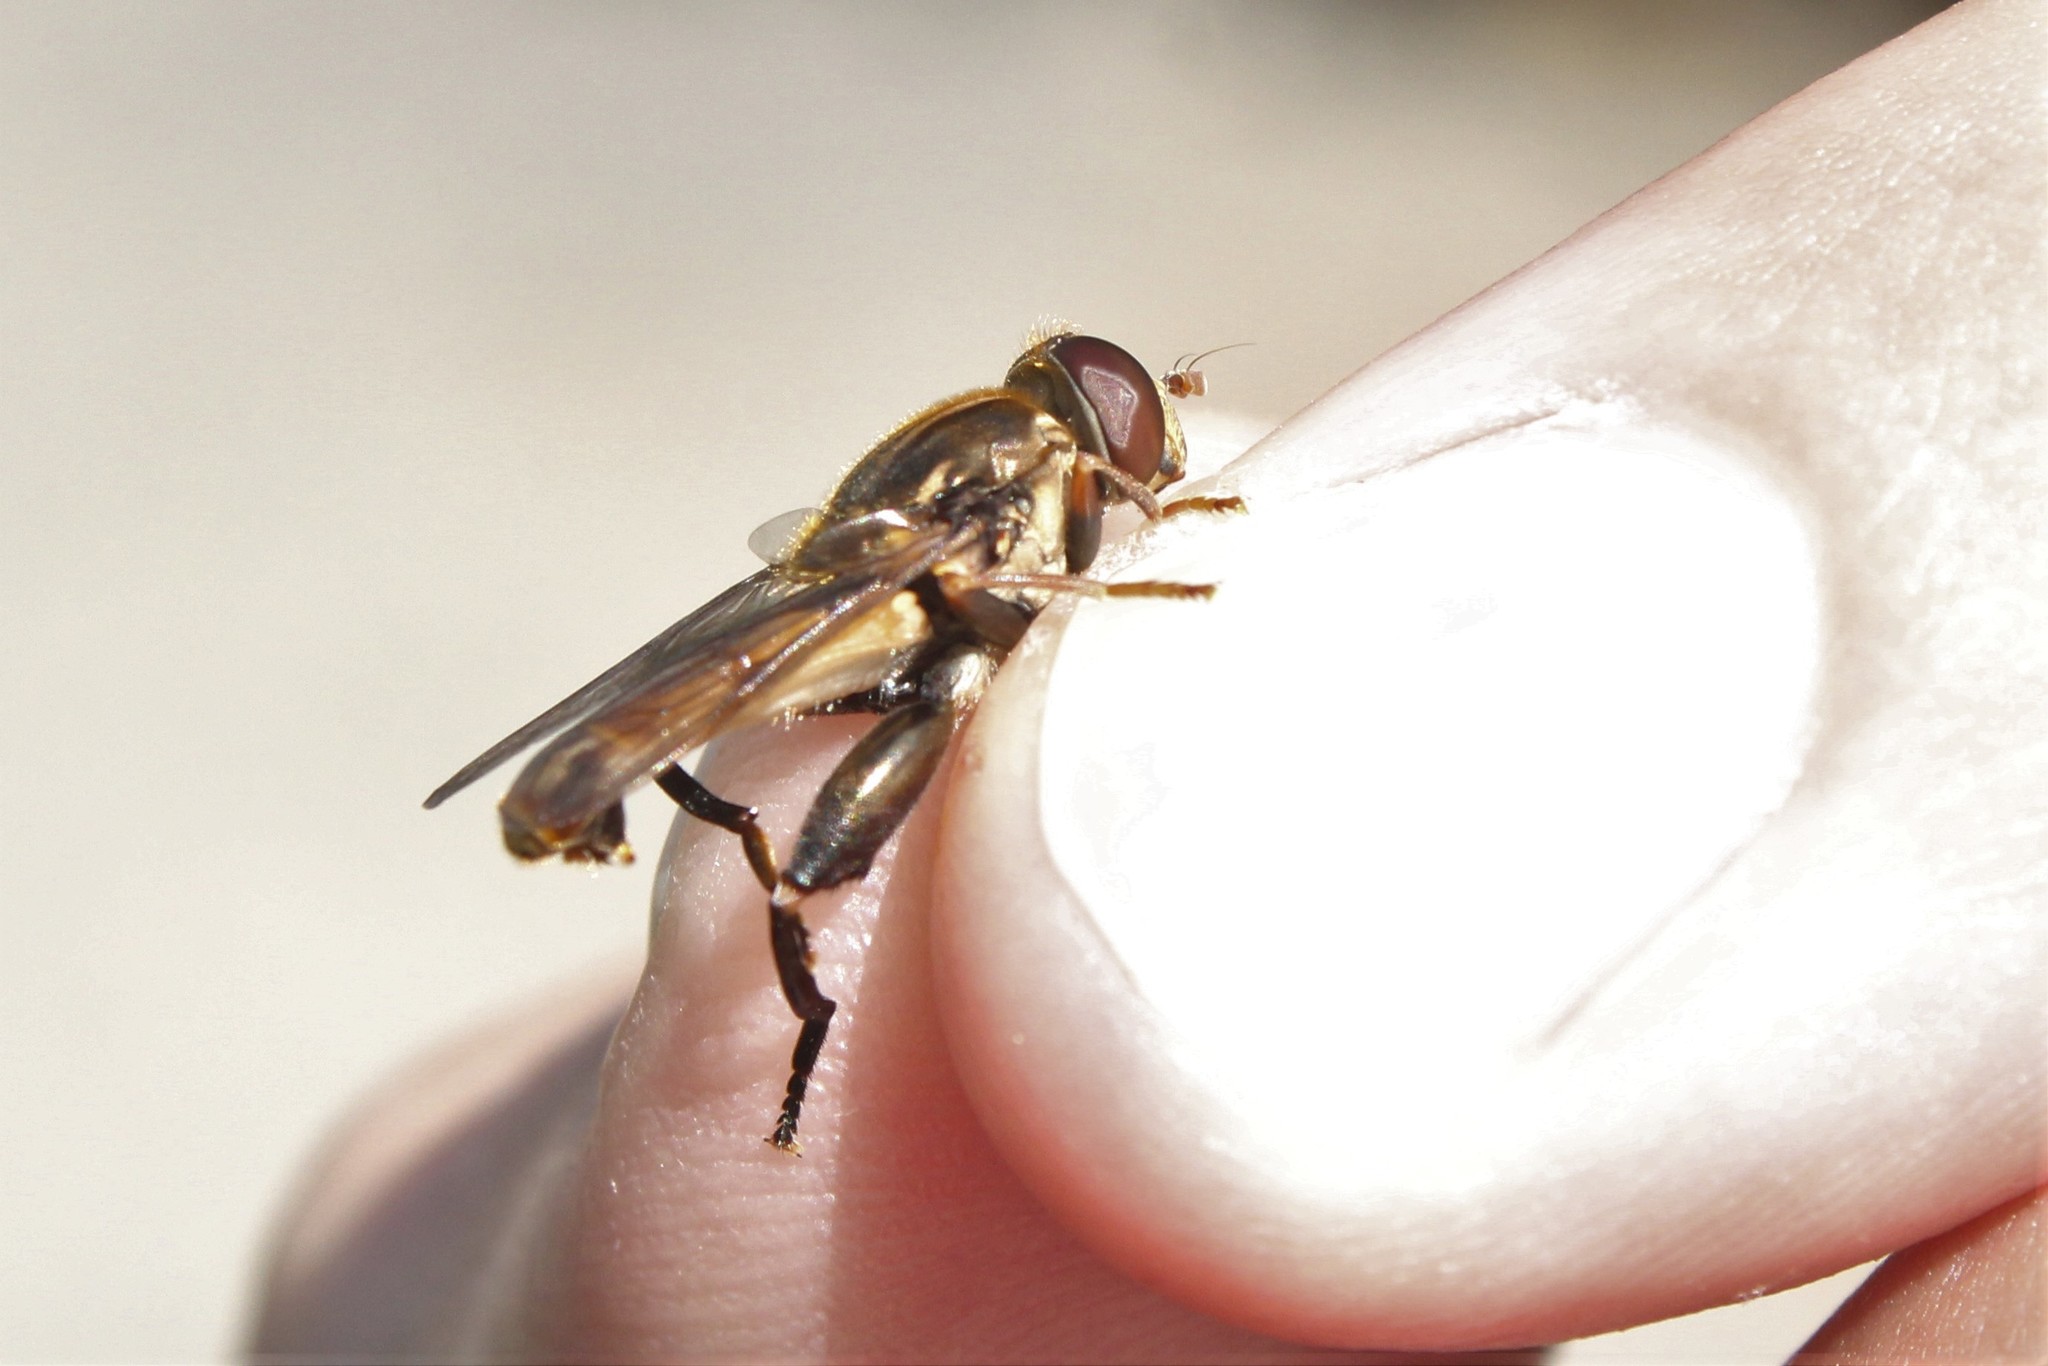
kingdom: Animalia
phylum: Arthropoda
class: Insecta
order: Diptera
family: Syrphidae
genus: Tropidia
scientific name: Tropidia quadrata
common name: Common thick-legged fly
